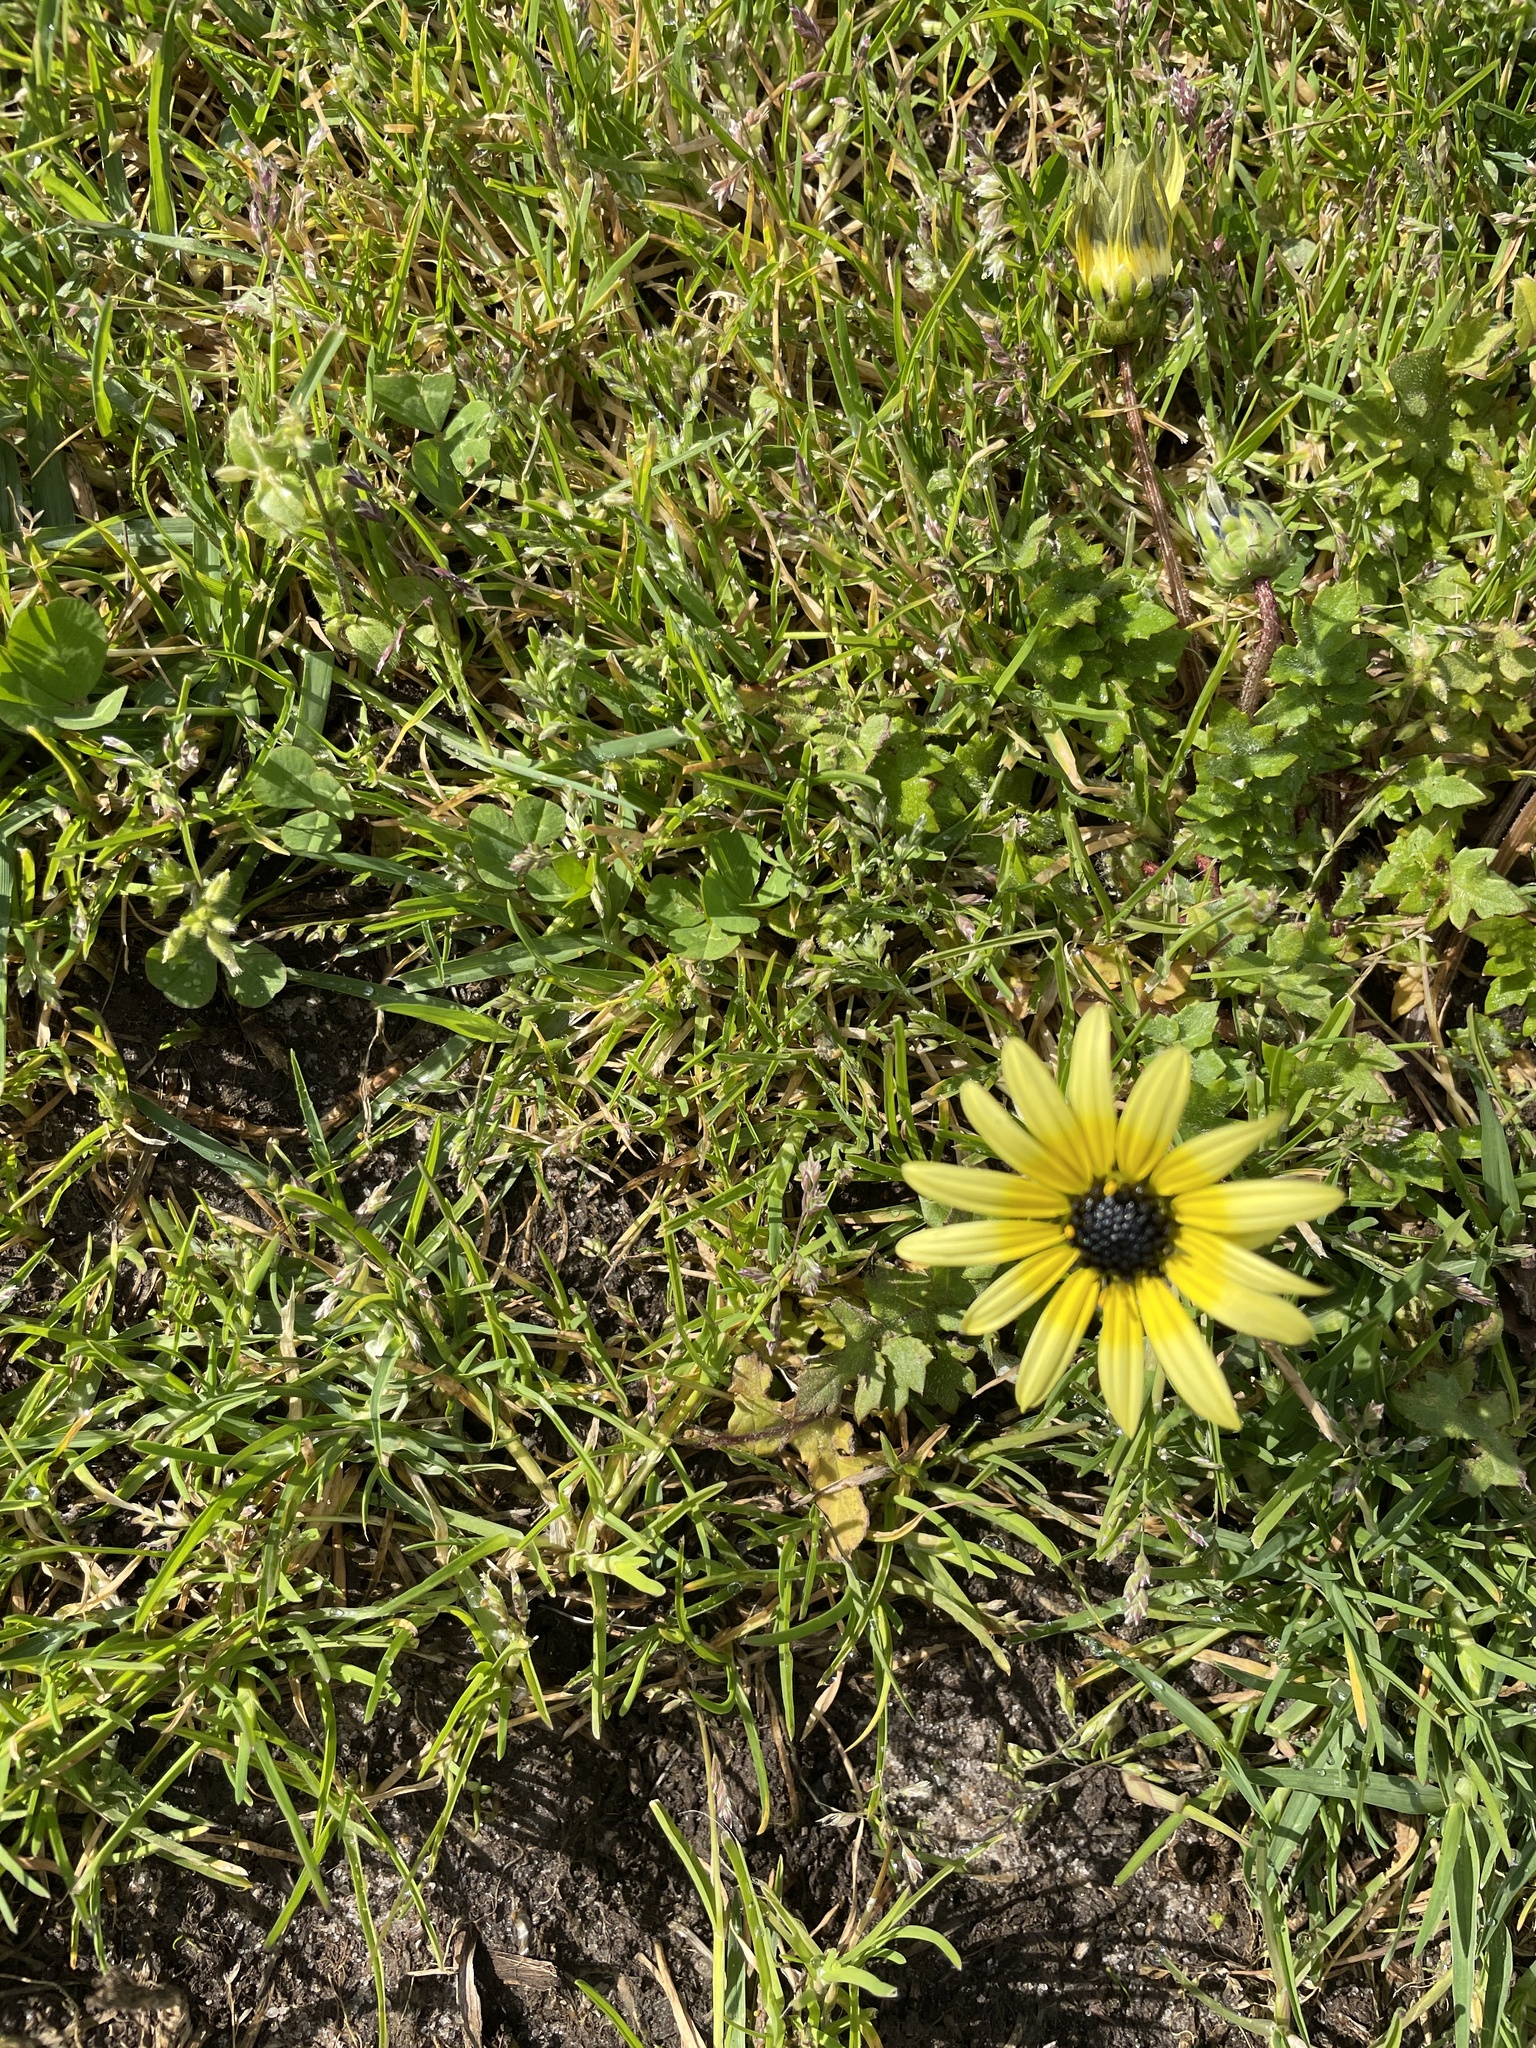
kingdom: Plantae
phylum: Tracheophyta
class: Magnoliopsida
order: Asterales
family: Asteraceae
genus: Arctotheca
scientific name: Arctotheca calendula
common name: Capeweed
